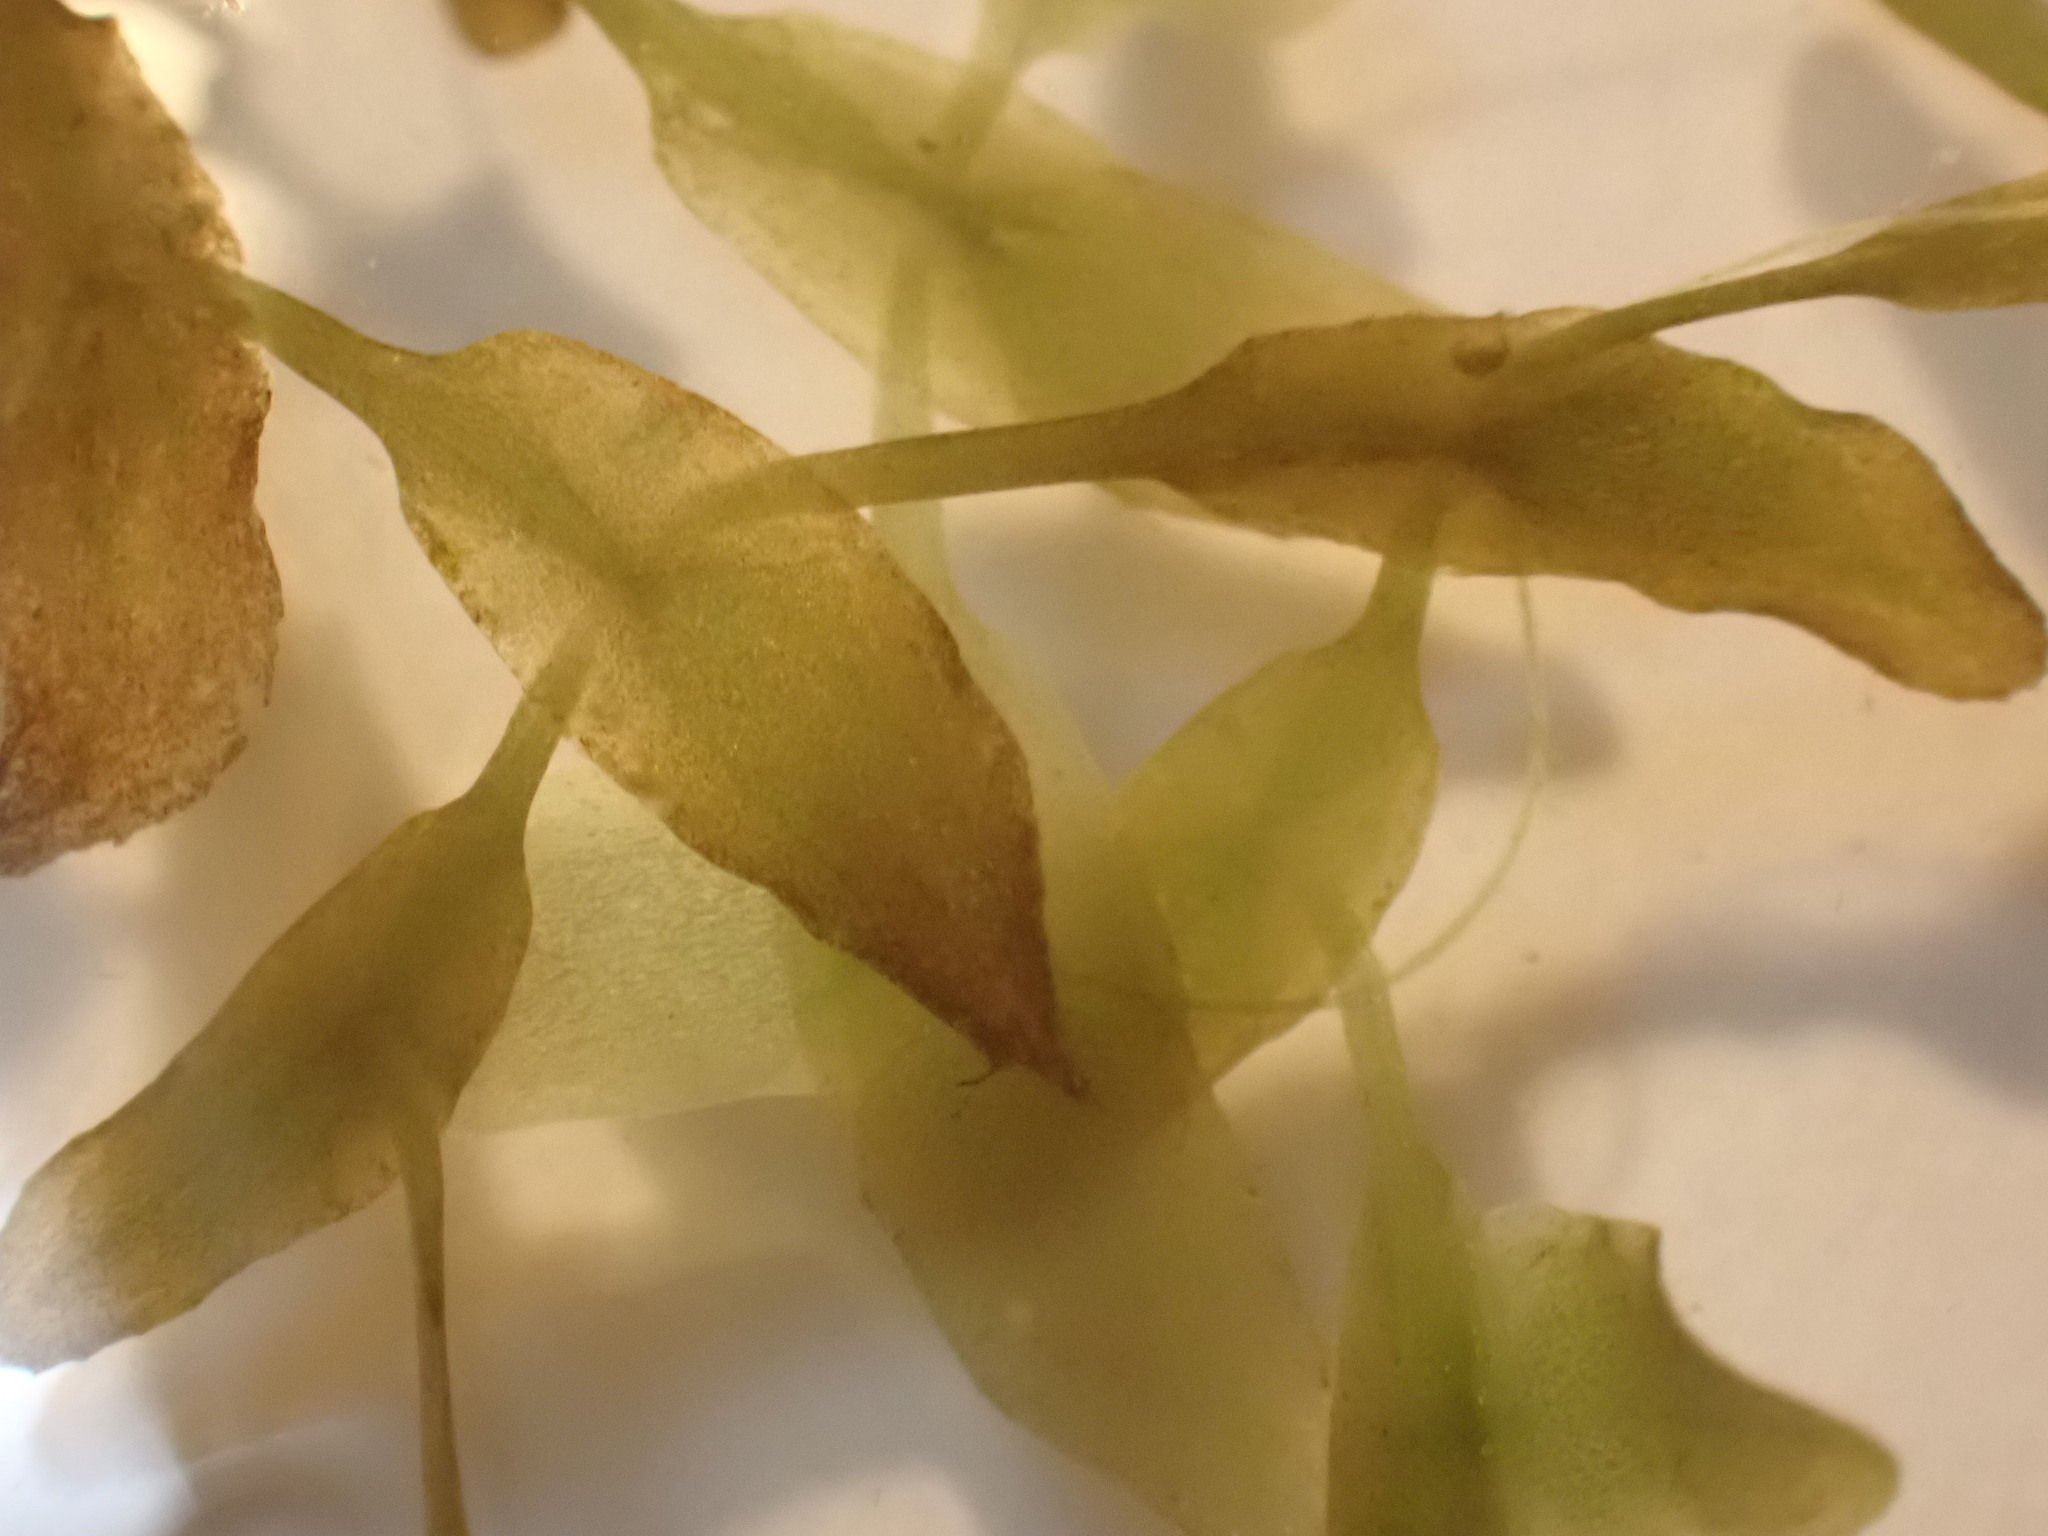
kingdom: Plantae
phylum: Tracheophyta
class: Liliopsida
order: Alismatales
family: Araceae
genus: Lemna
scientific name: Lemna trisulca
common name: Ivy-leaved duckweed
